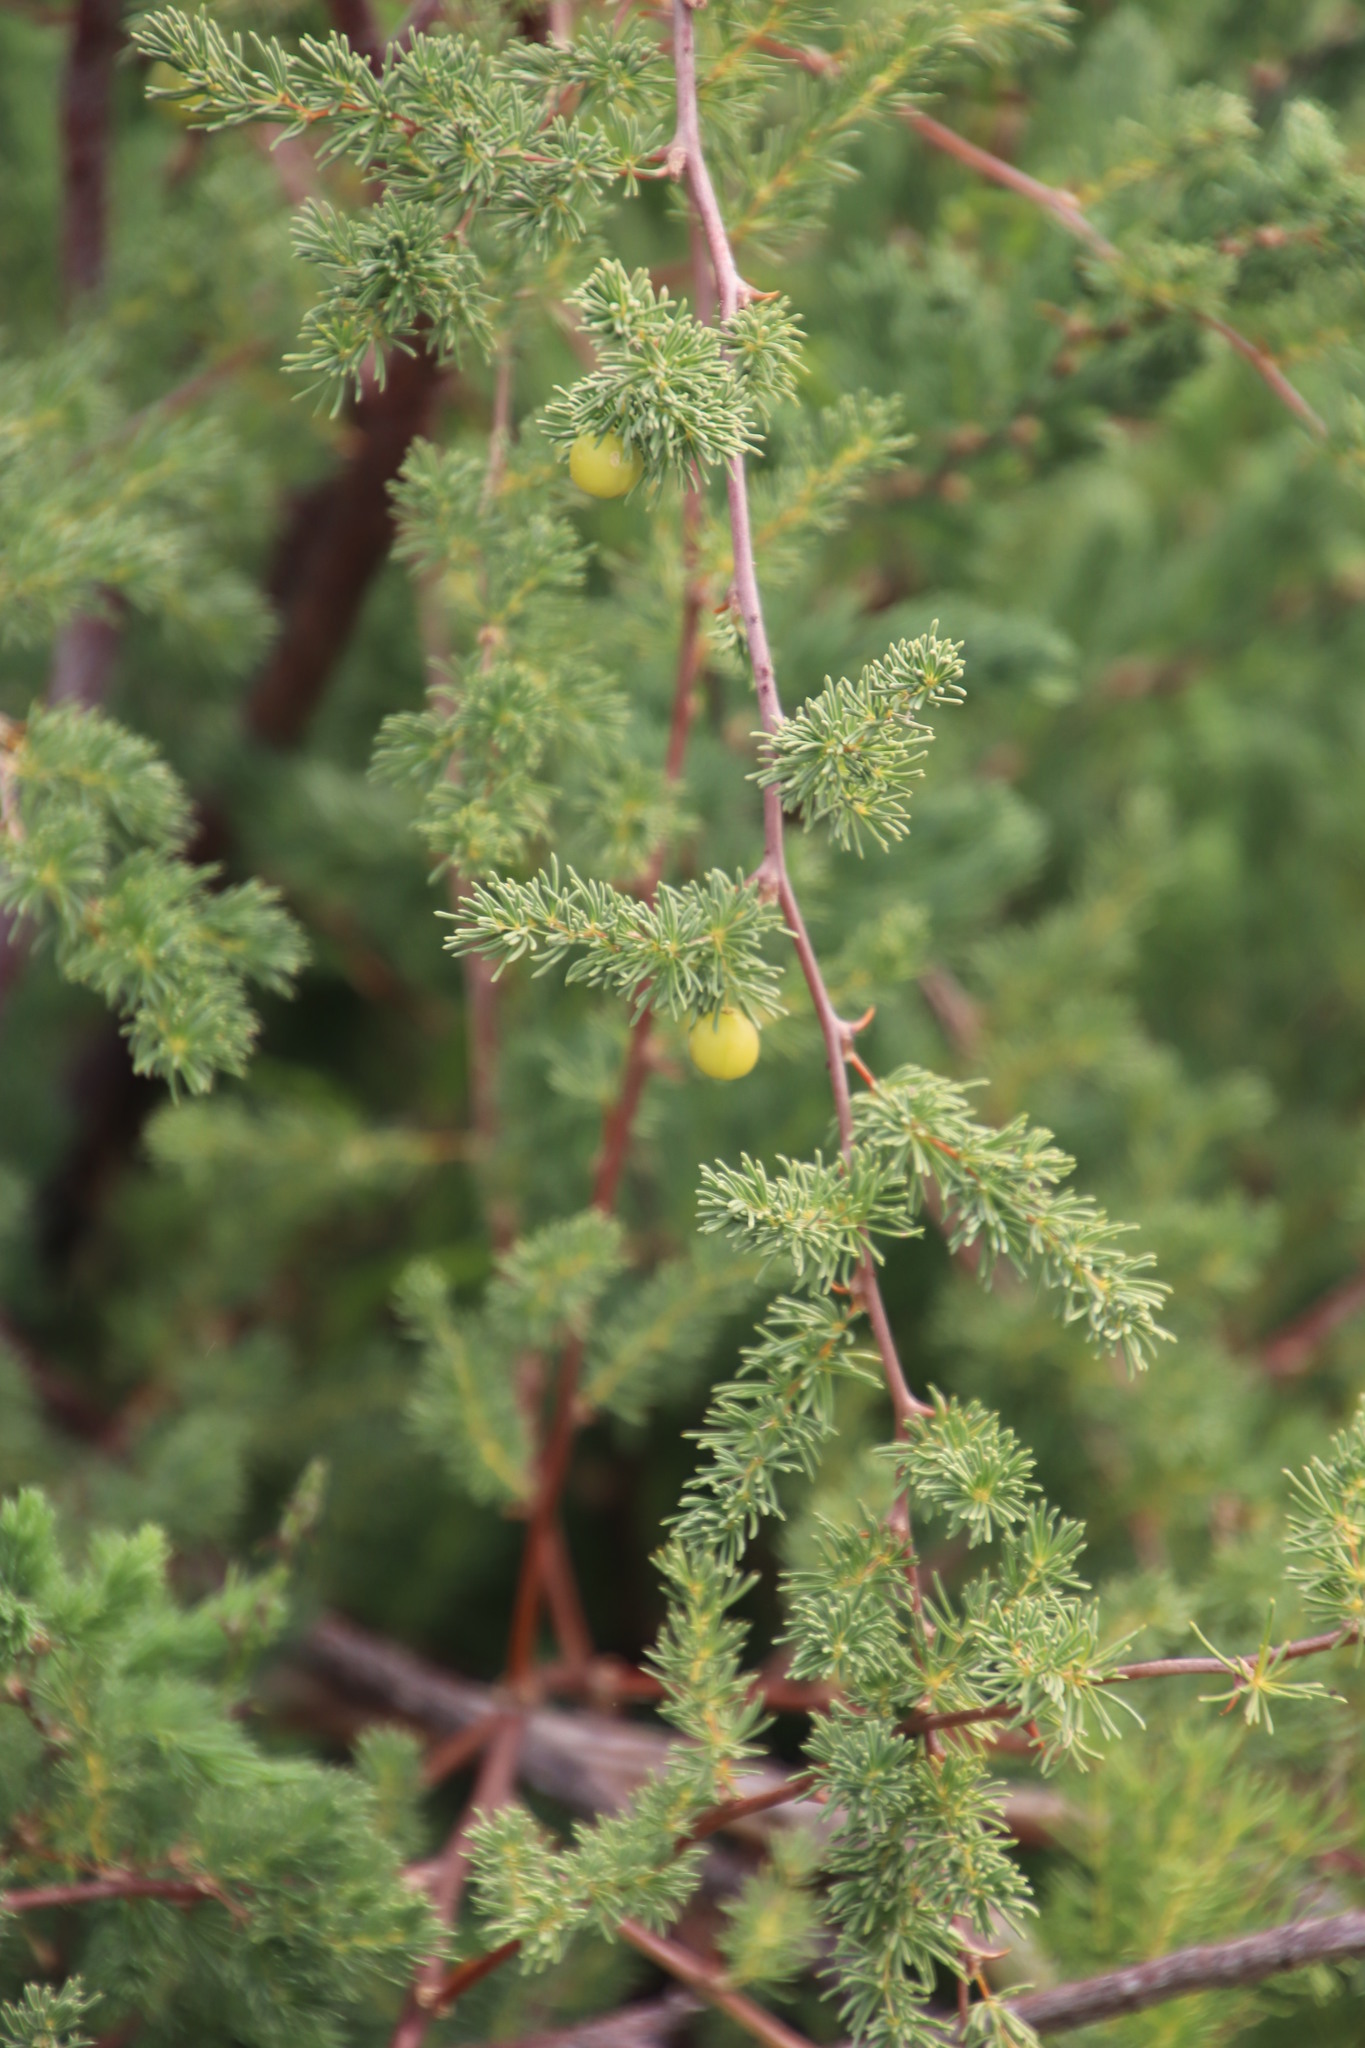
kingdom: Plantae
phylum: Tracheophyta
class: Liliopsida
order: Asparagales
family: Asparagaceae
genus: Asparagus
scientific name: Asparagus rubicundus
